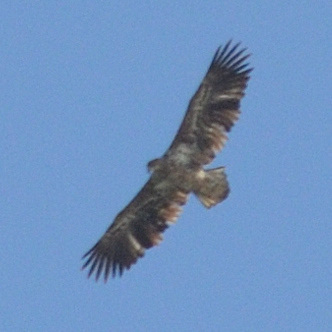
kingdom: Animalia
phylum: Chordata
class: Aves
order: Accipitriformes
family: Accipitridae
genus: Haliaeetus
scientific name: Haliaeetus albicilla
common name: White-tailed eagle
